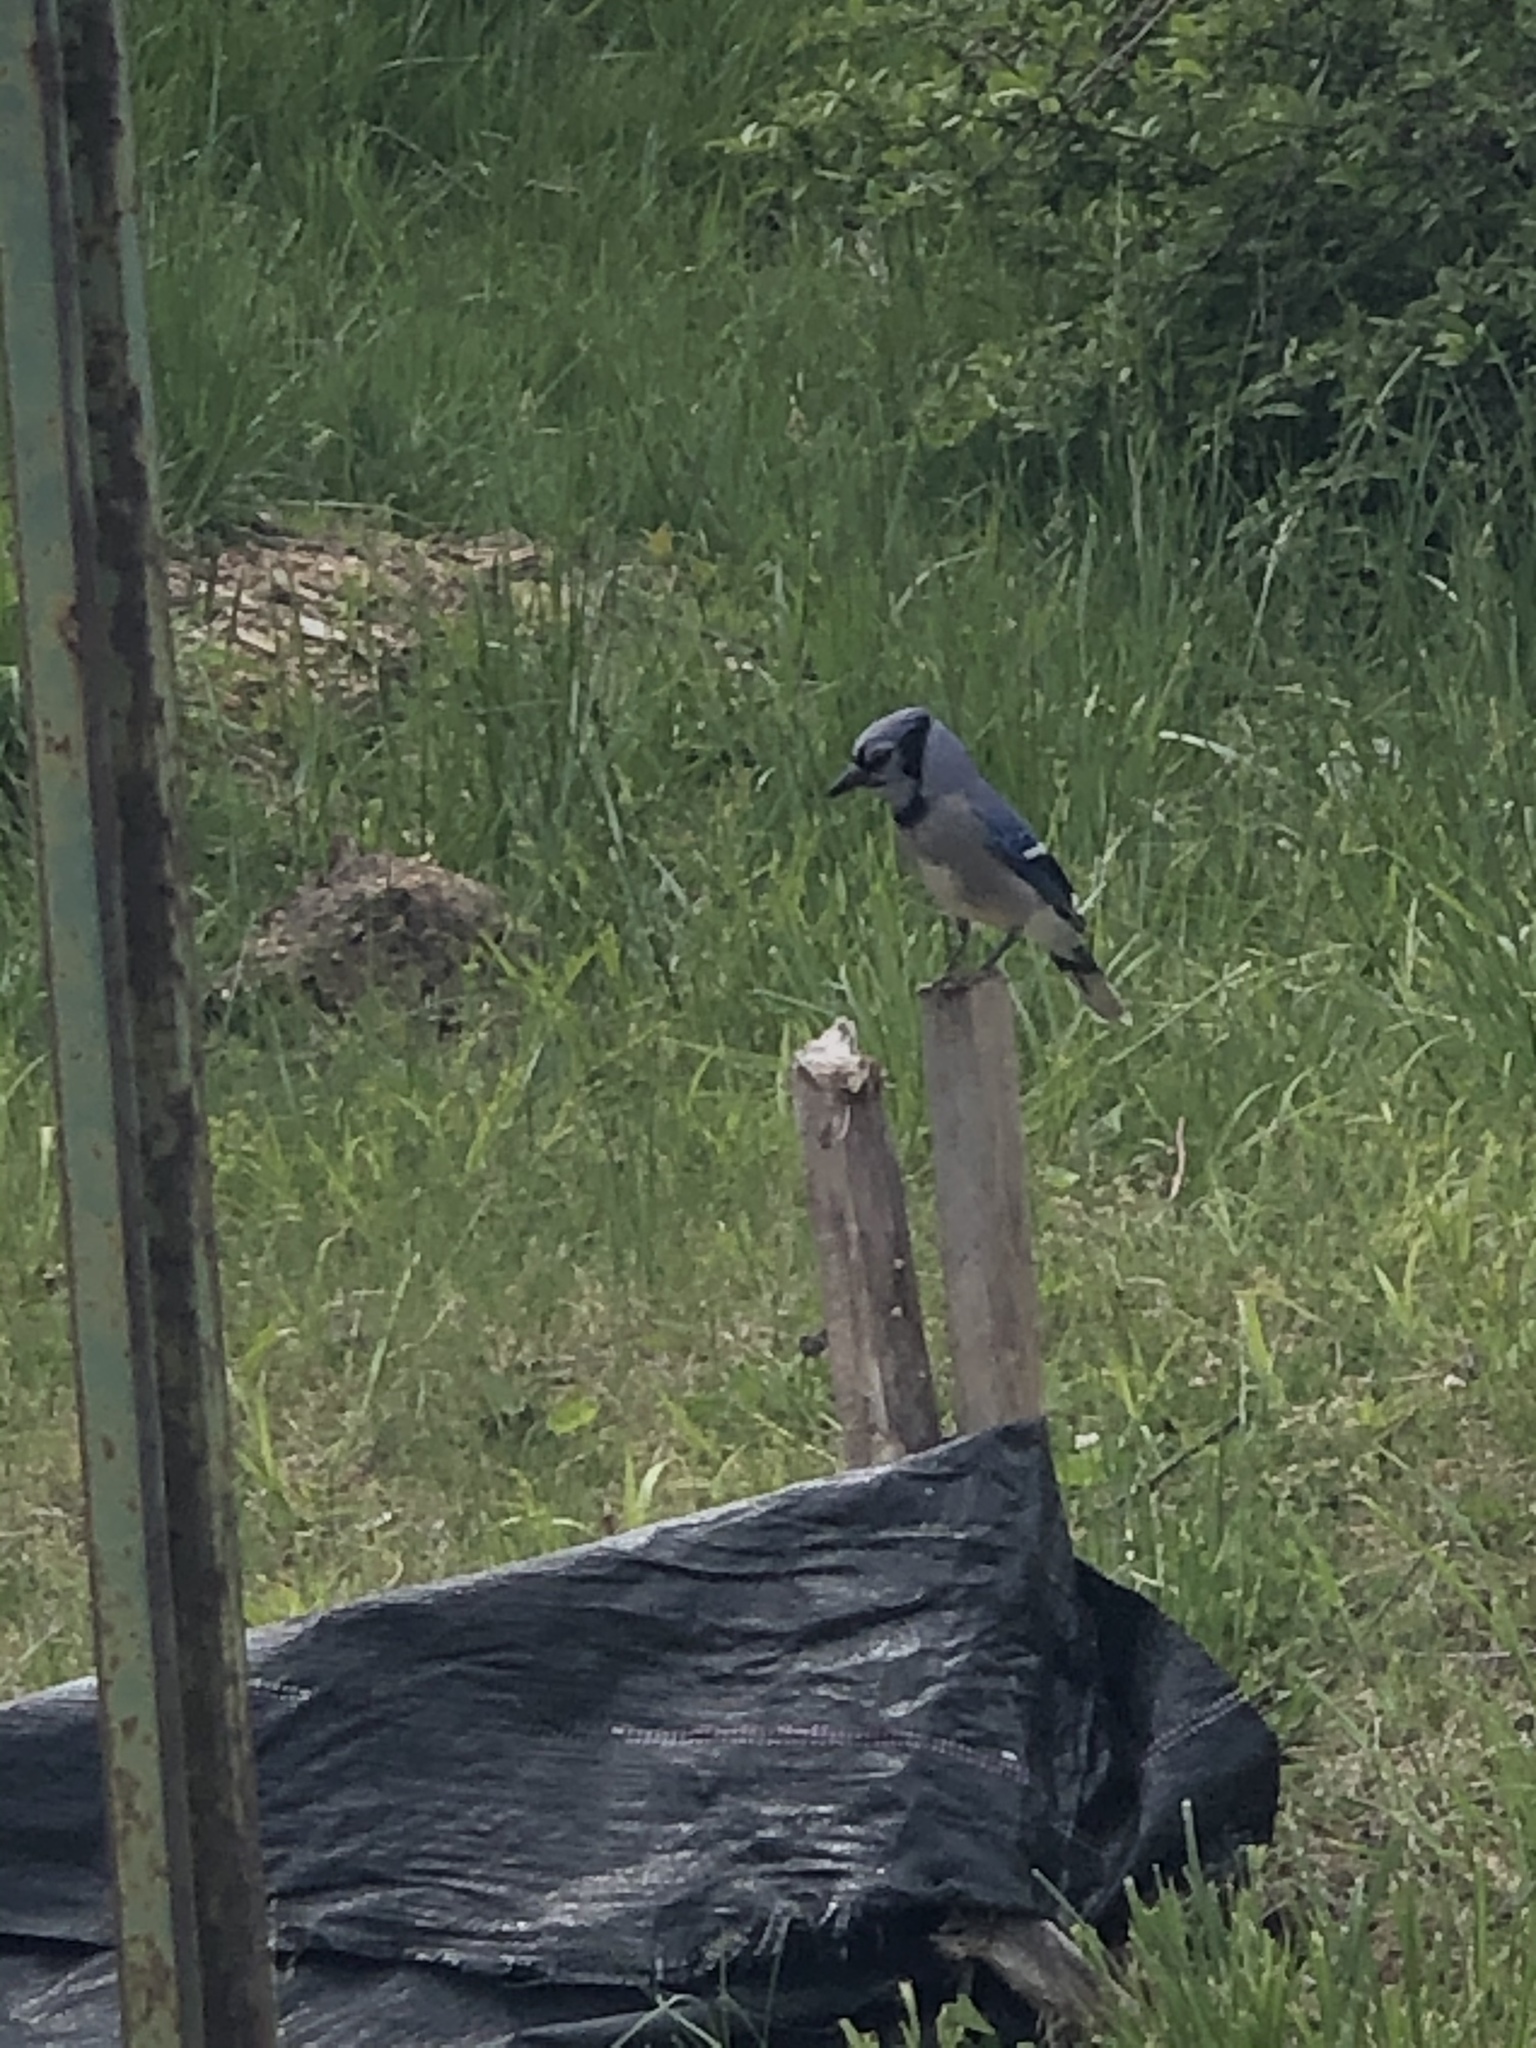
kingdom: Animalia
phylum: Chordata
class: Aves
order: Passeriformes
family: Corvidae
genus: Cyanocitta
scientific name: Cyanocitta cristata
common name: Blue jay
